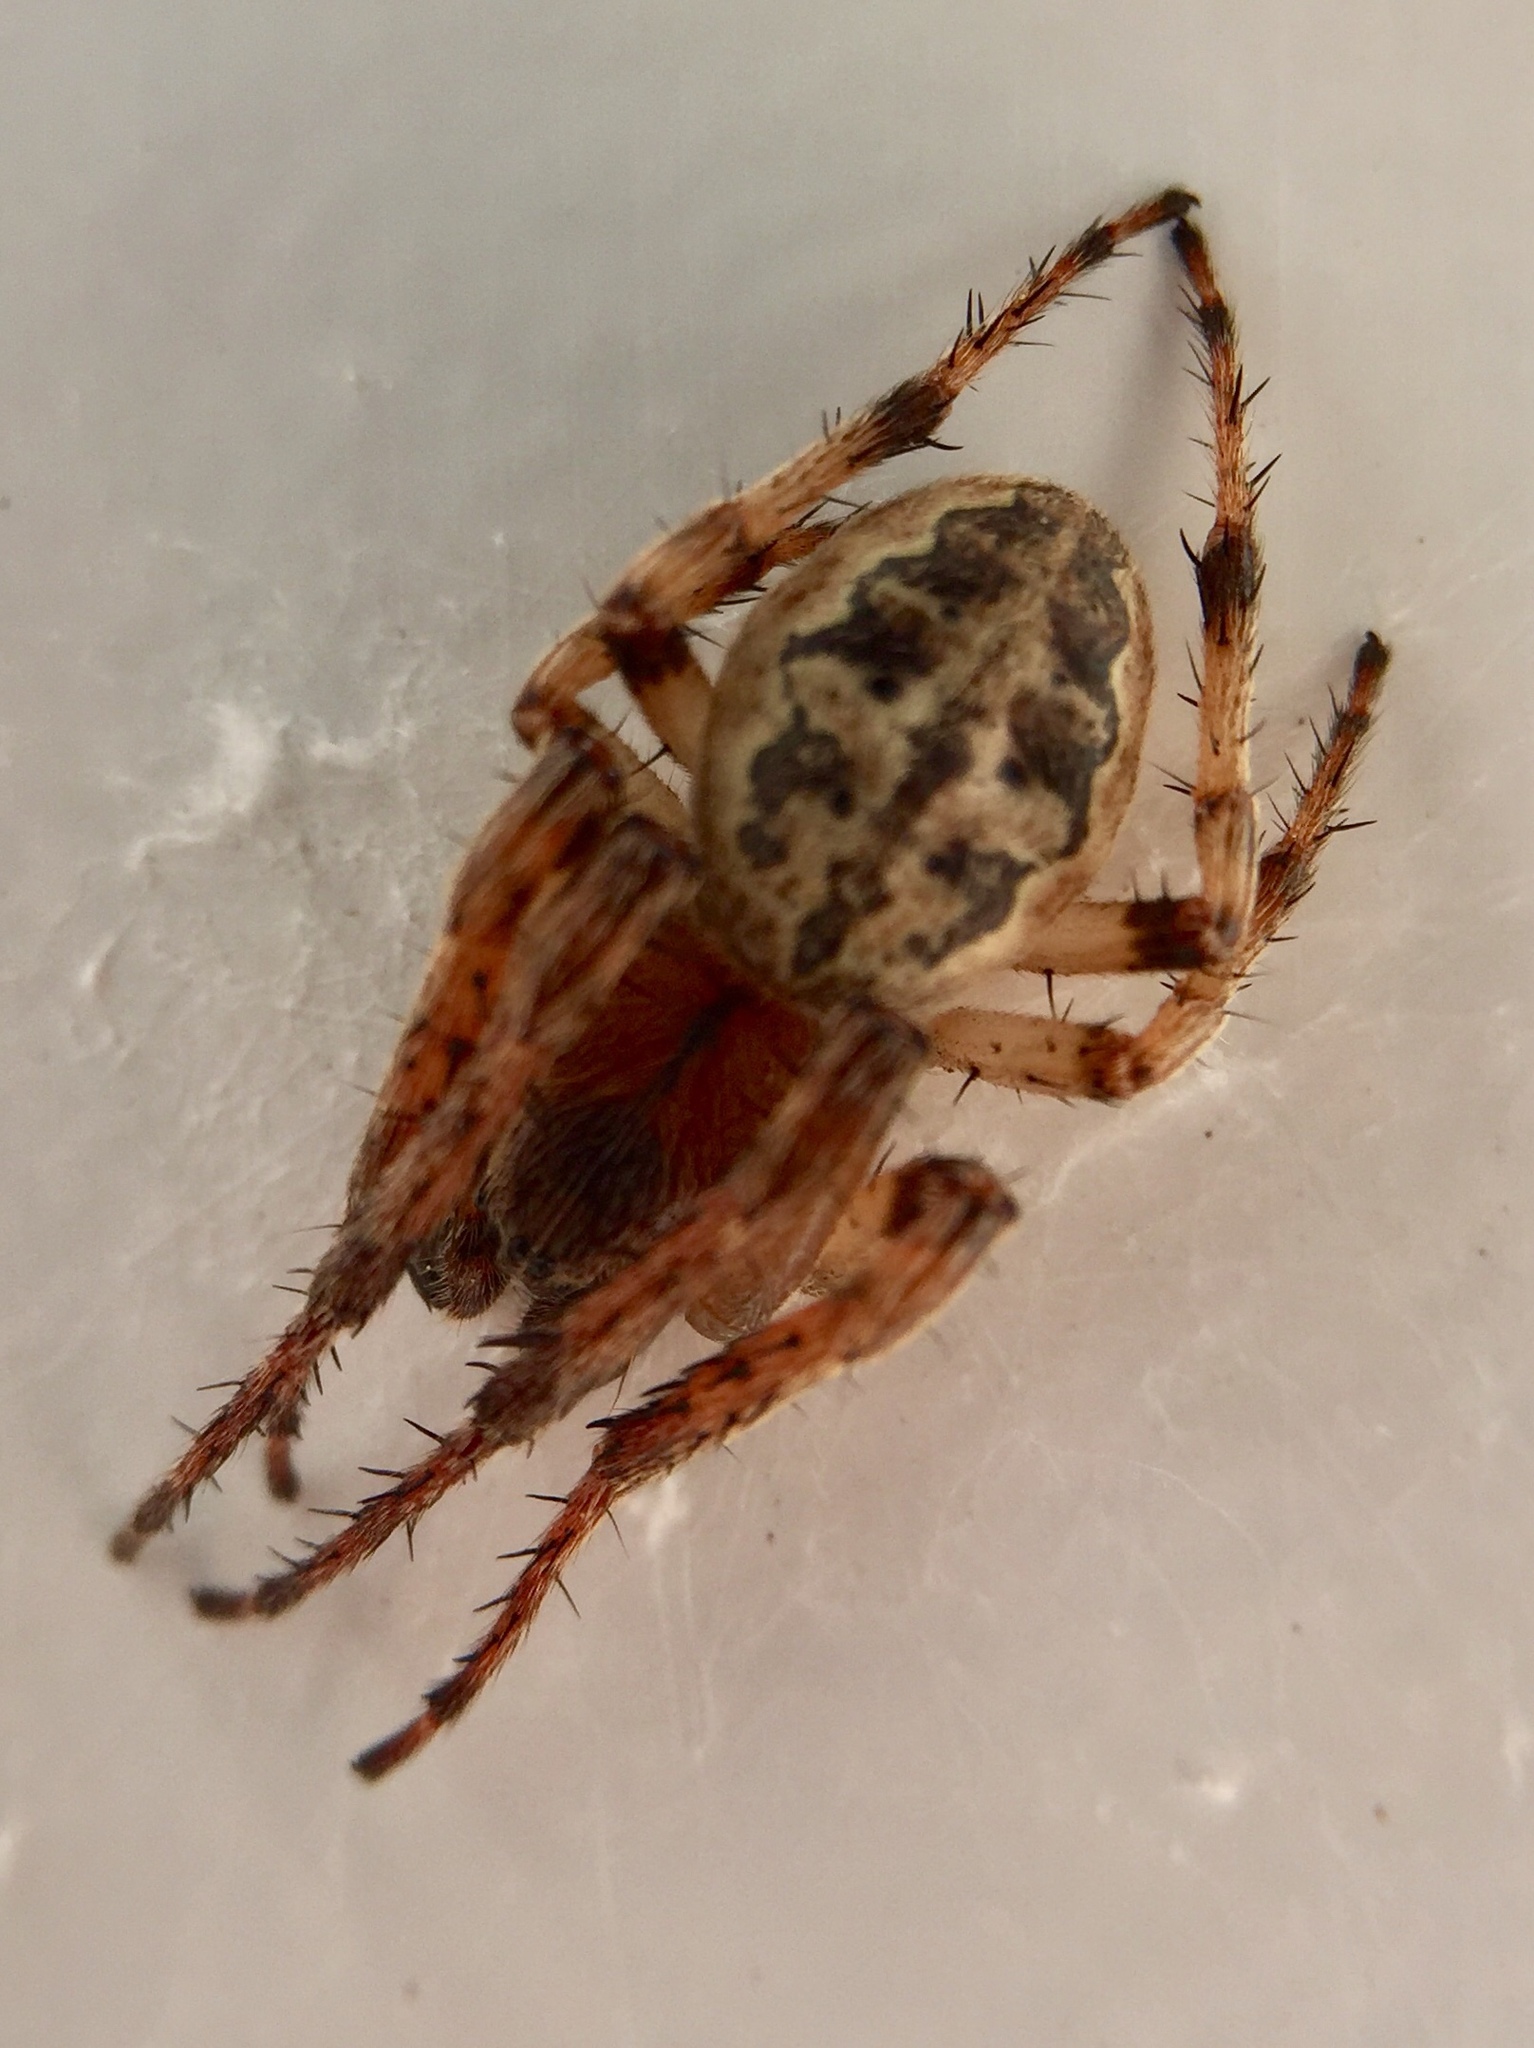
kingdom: Animalia
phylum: Arthropoda
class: Arachnida
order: Araneae
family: Araneidae
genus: Larinioides
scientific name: Larinioides cornutus
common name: Furrow orbweaver
